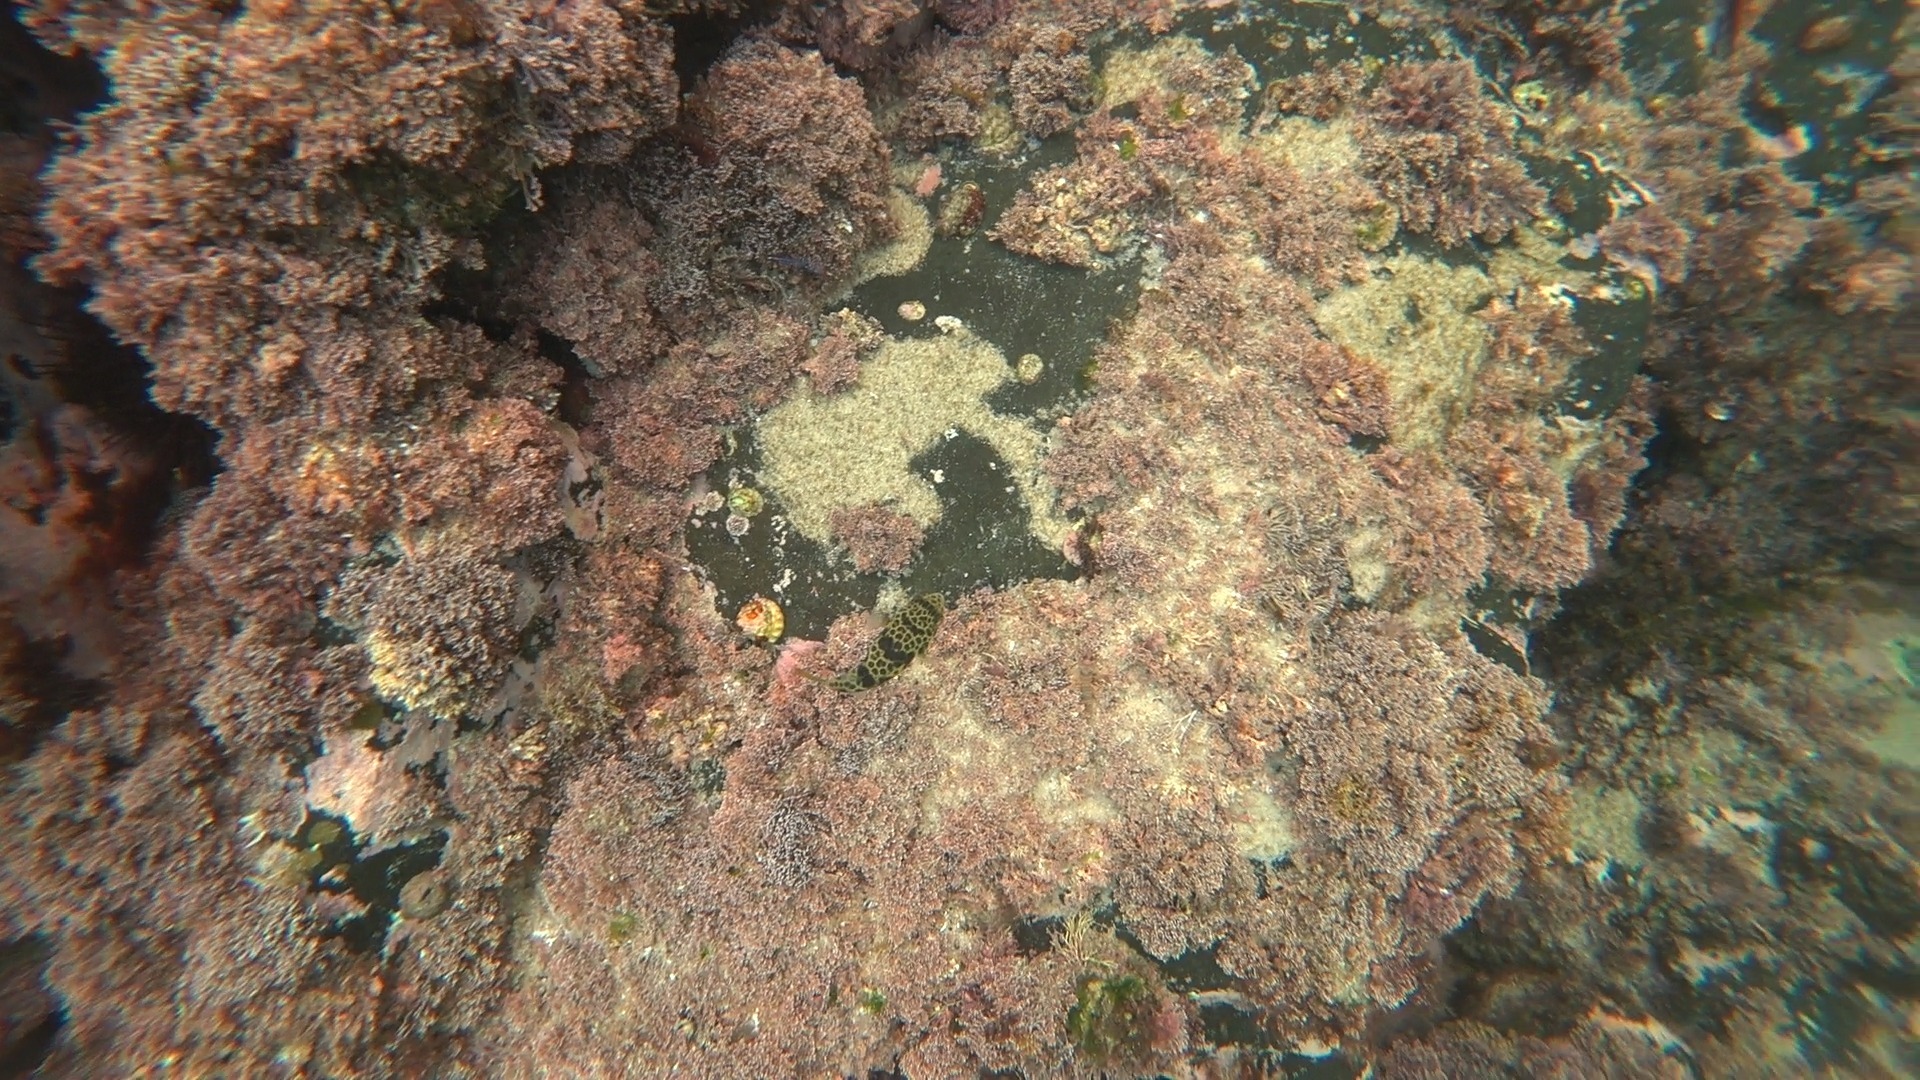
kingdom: Animalia
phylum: Chordata
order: Tetraodontiformes
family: Tetraodontidae
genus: Tetractenos
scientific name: Tetractenos glaber
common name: Smooth toadfish
